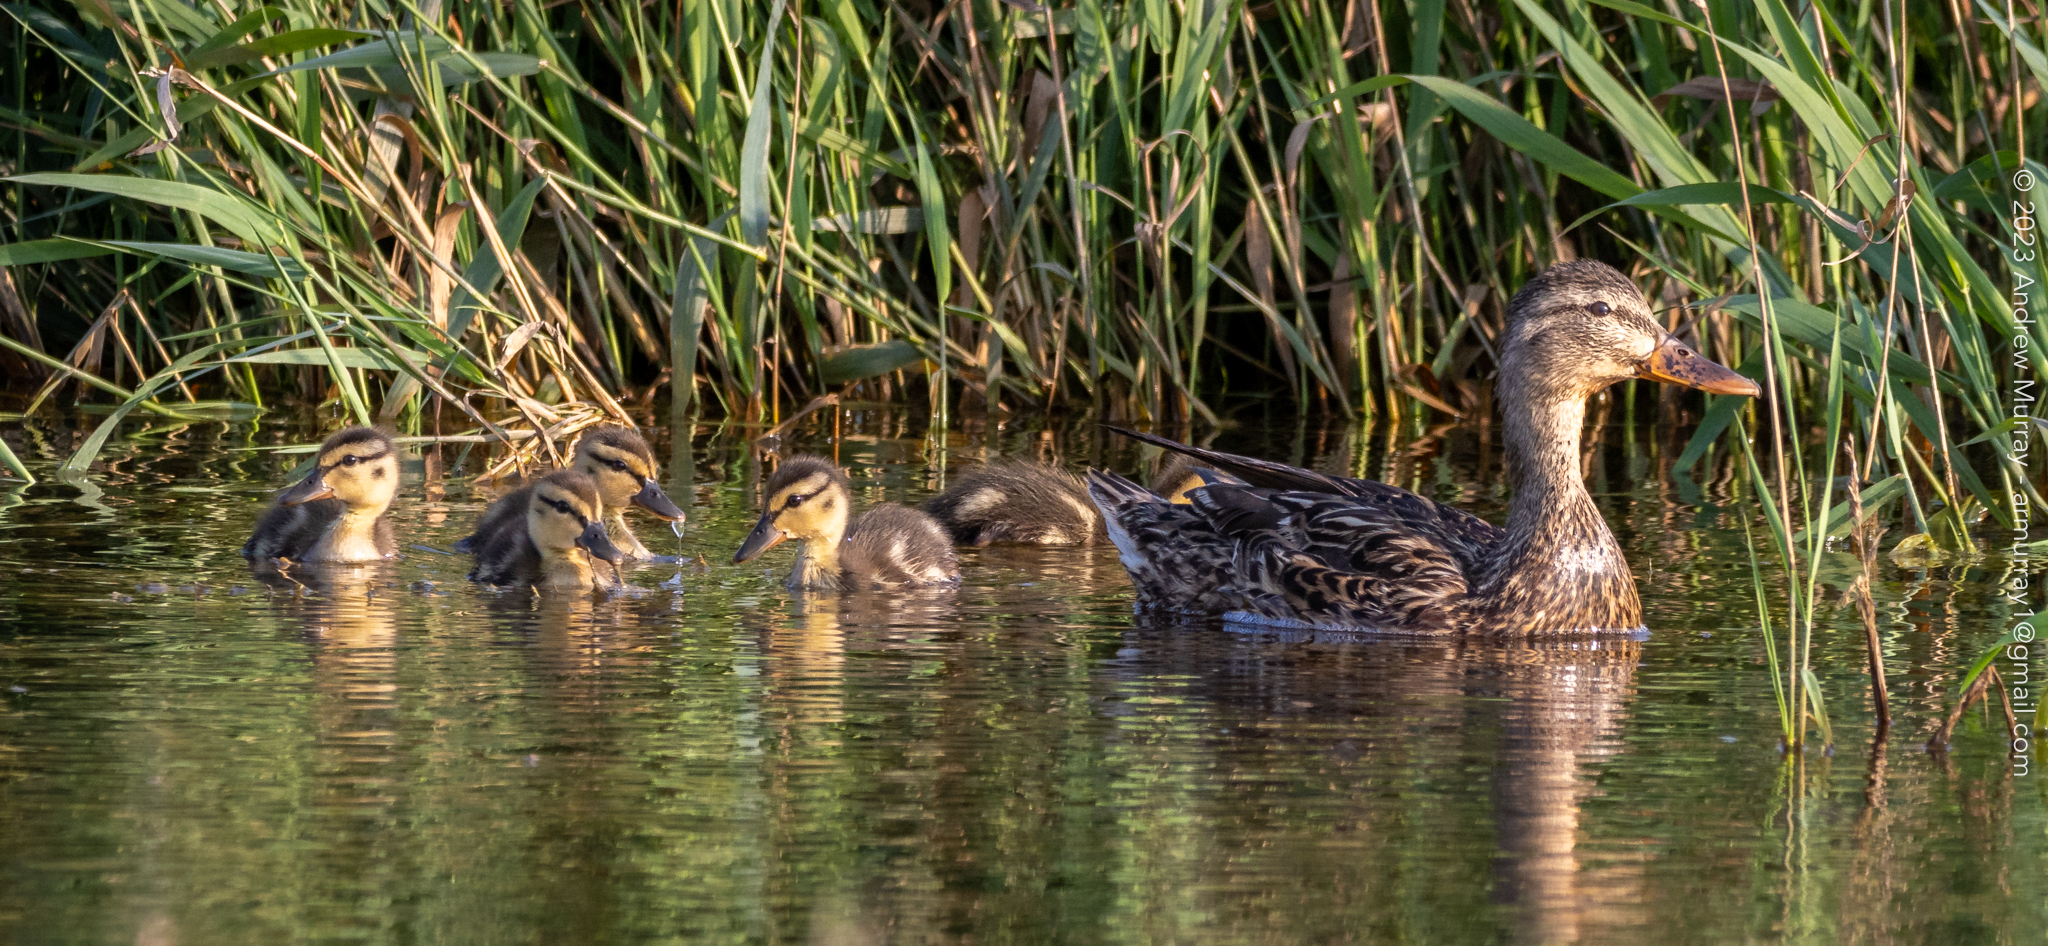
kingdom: Animalia
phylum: Chordata
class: Aves
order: Anseriformes
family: Anatidae
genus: Anas
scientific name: Anas platyrhynchos
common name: Mallard
